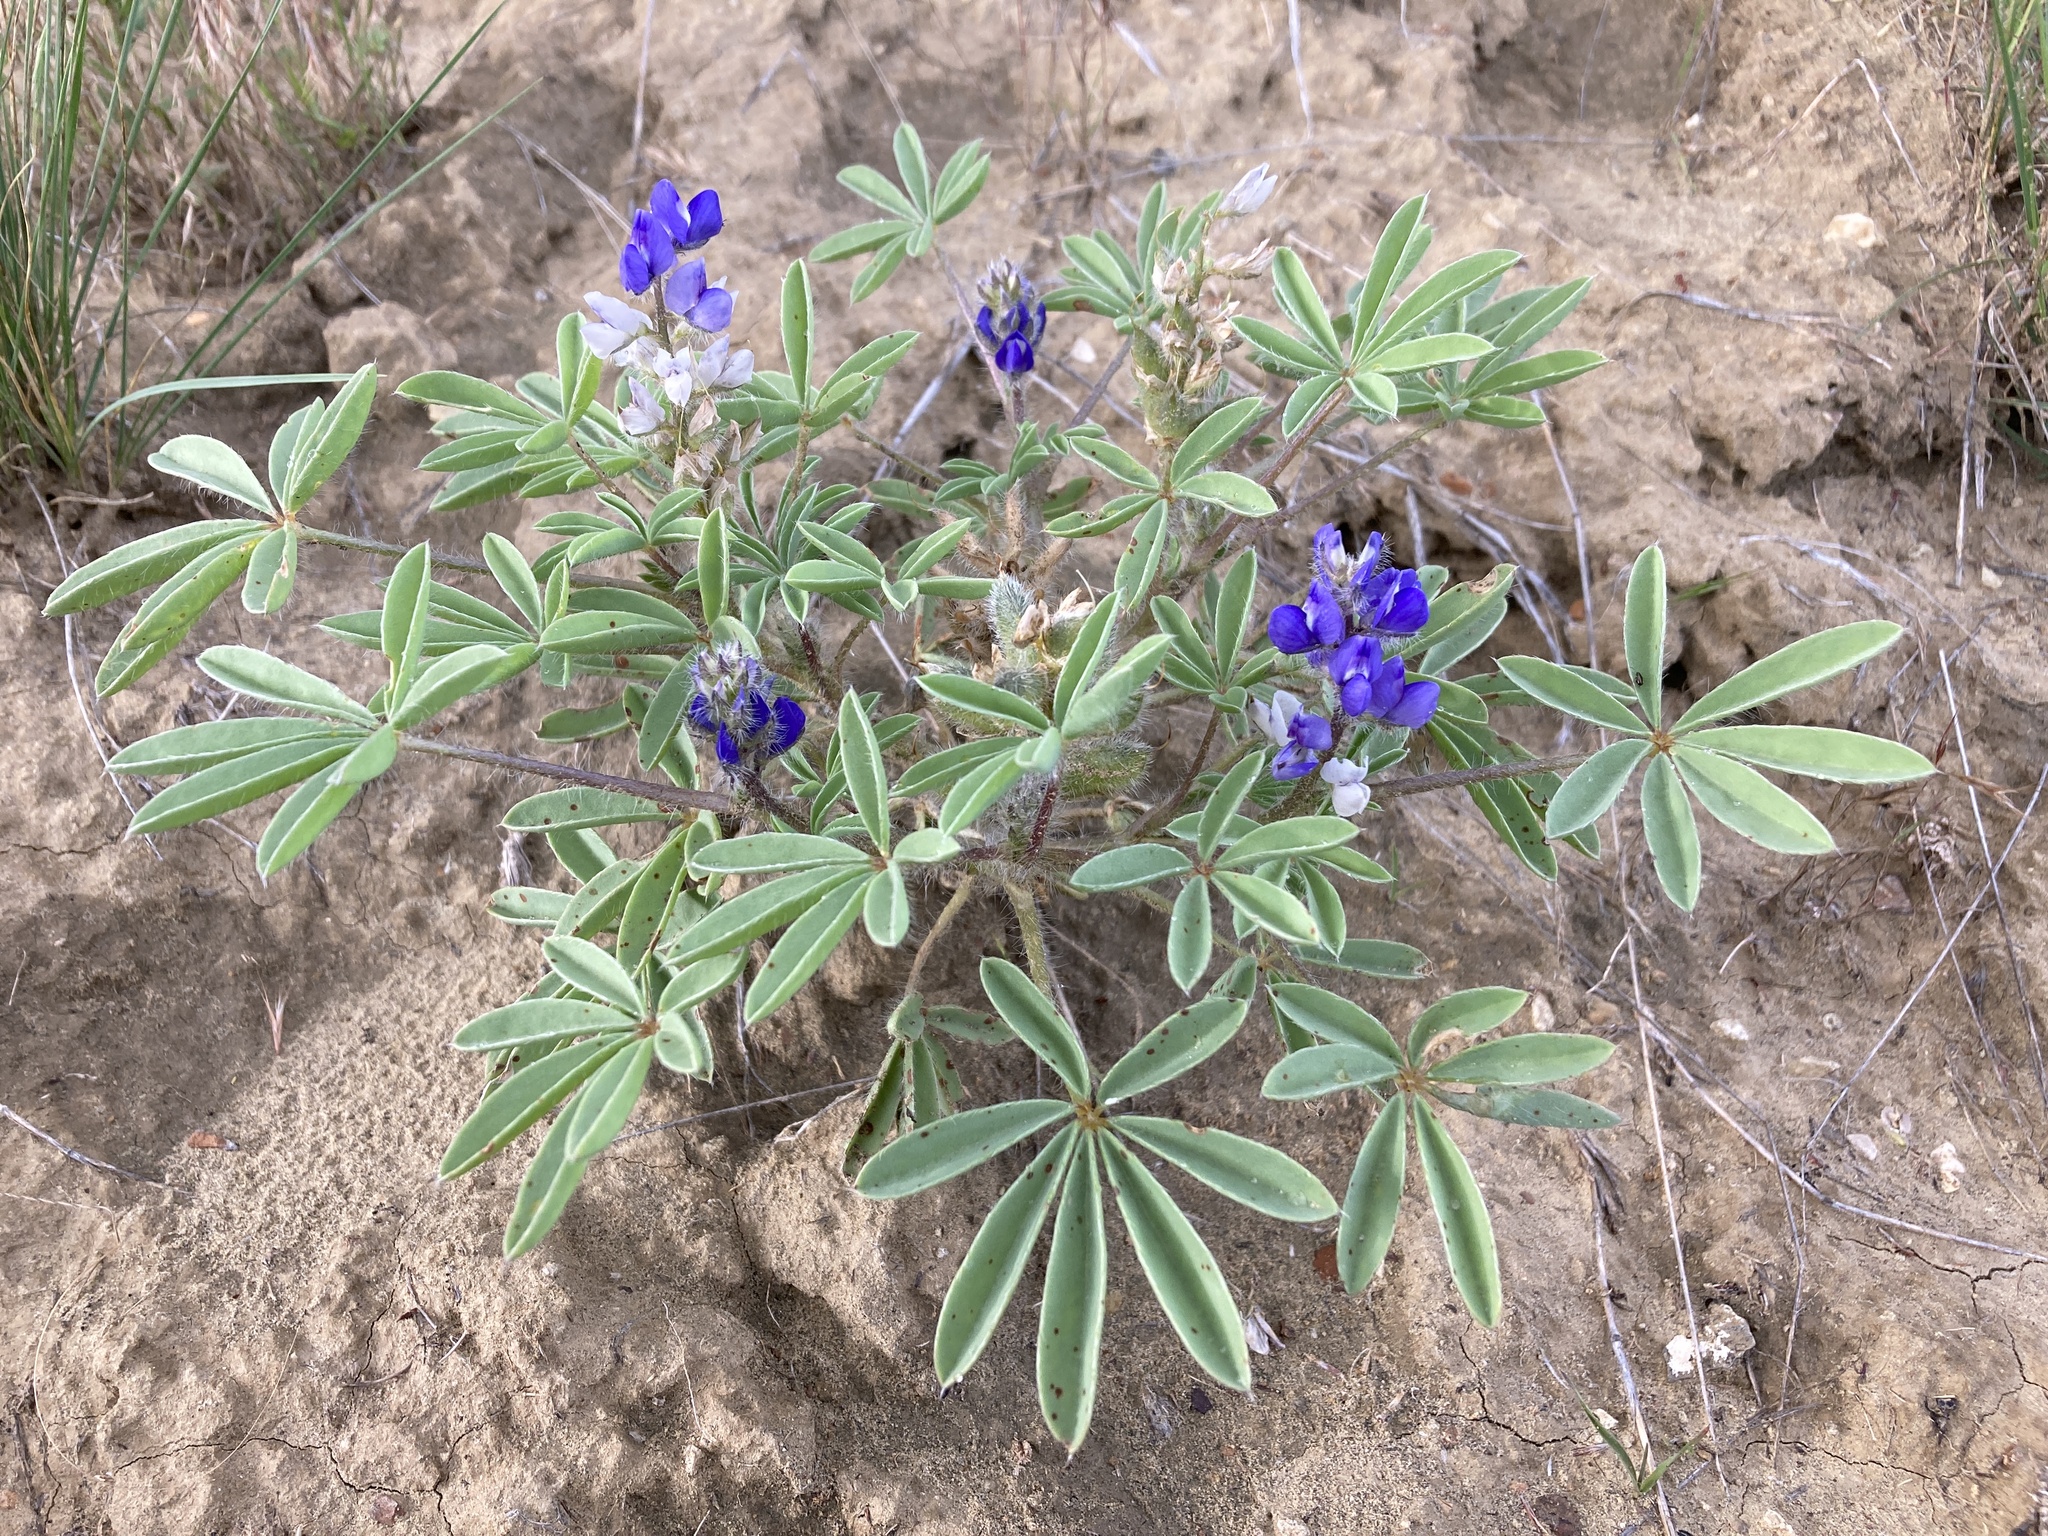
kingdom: Plantae
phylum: Tracheophyta
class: Magnoliopsida
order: Fabales
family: Fabaceae
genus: Lupinus
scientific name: Lupinus pusillus
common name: Low lupine
